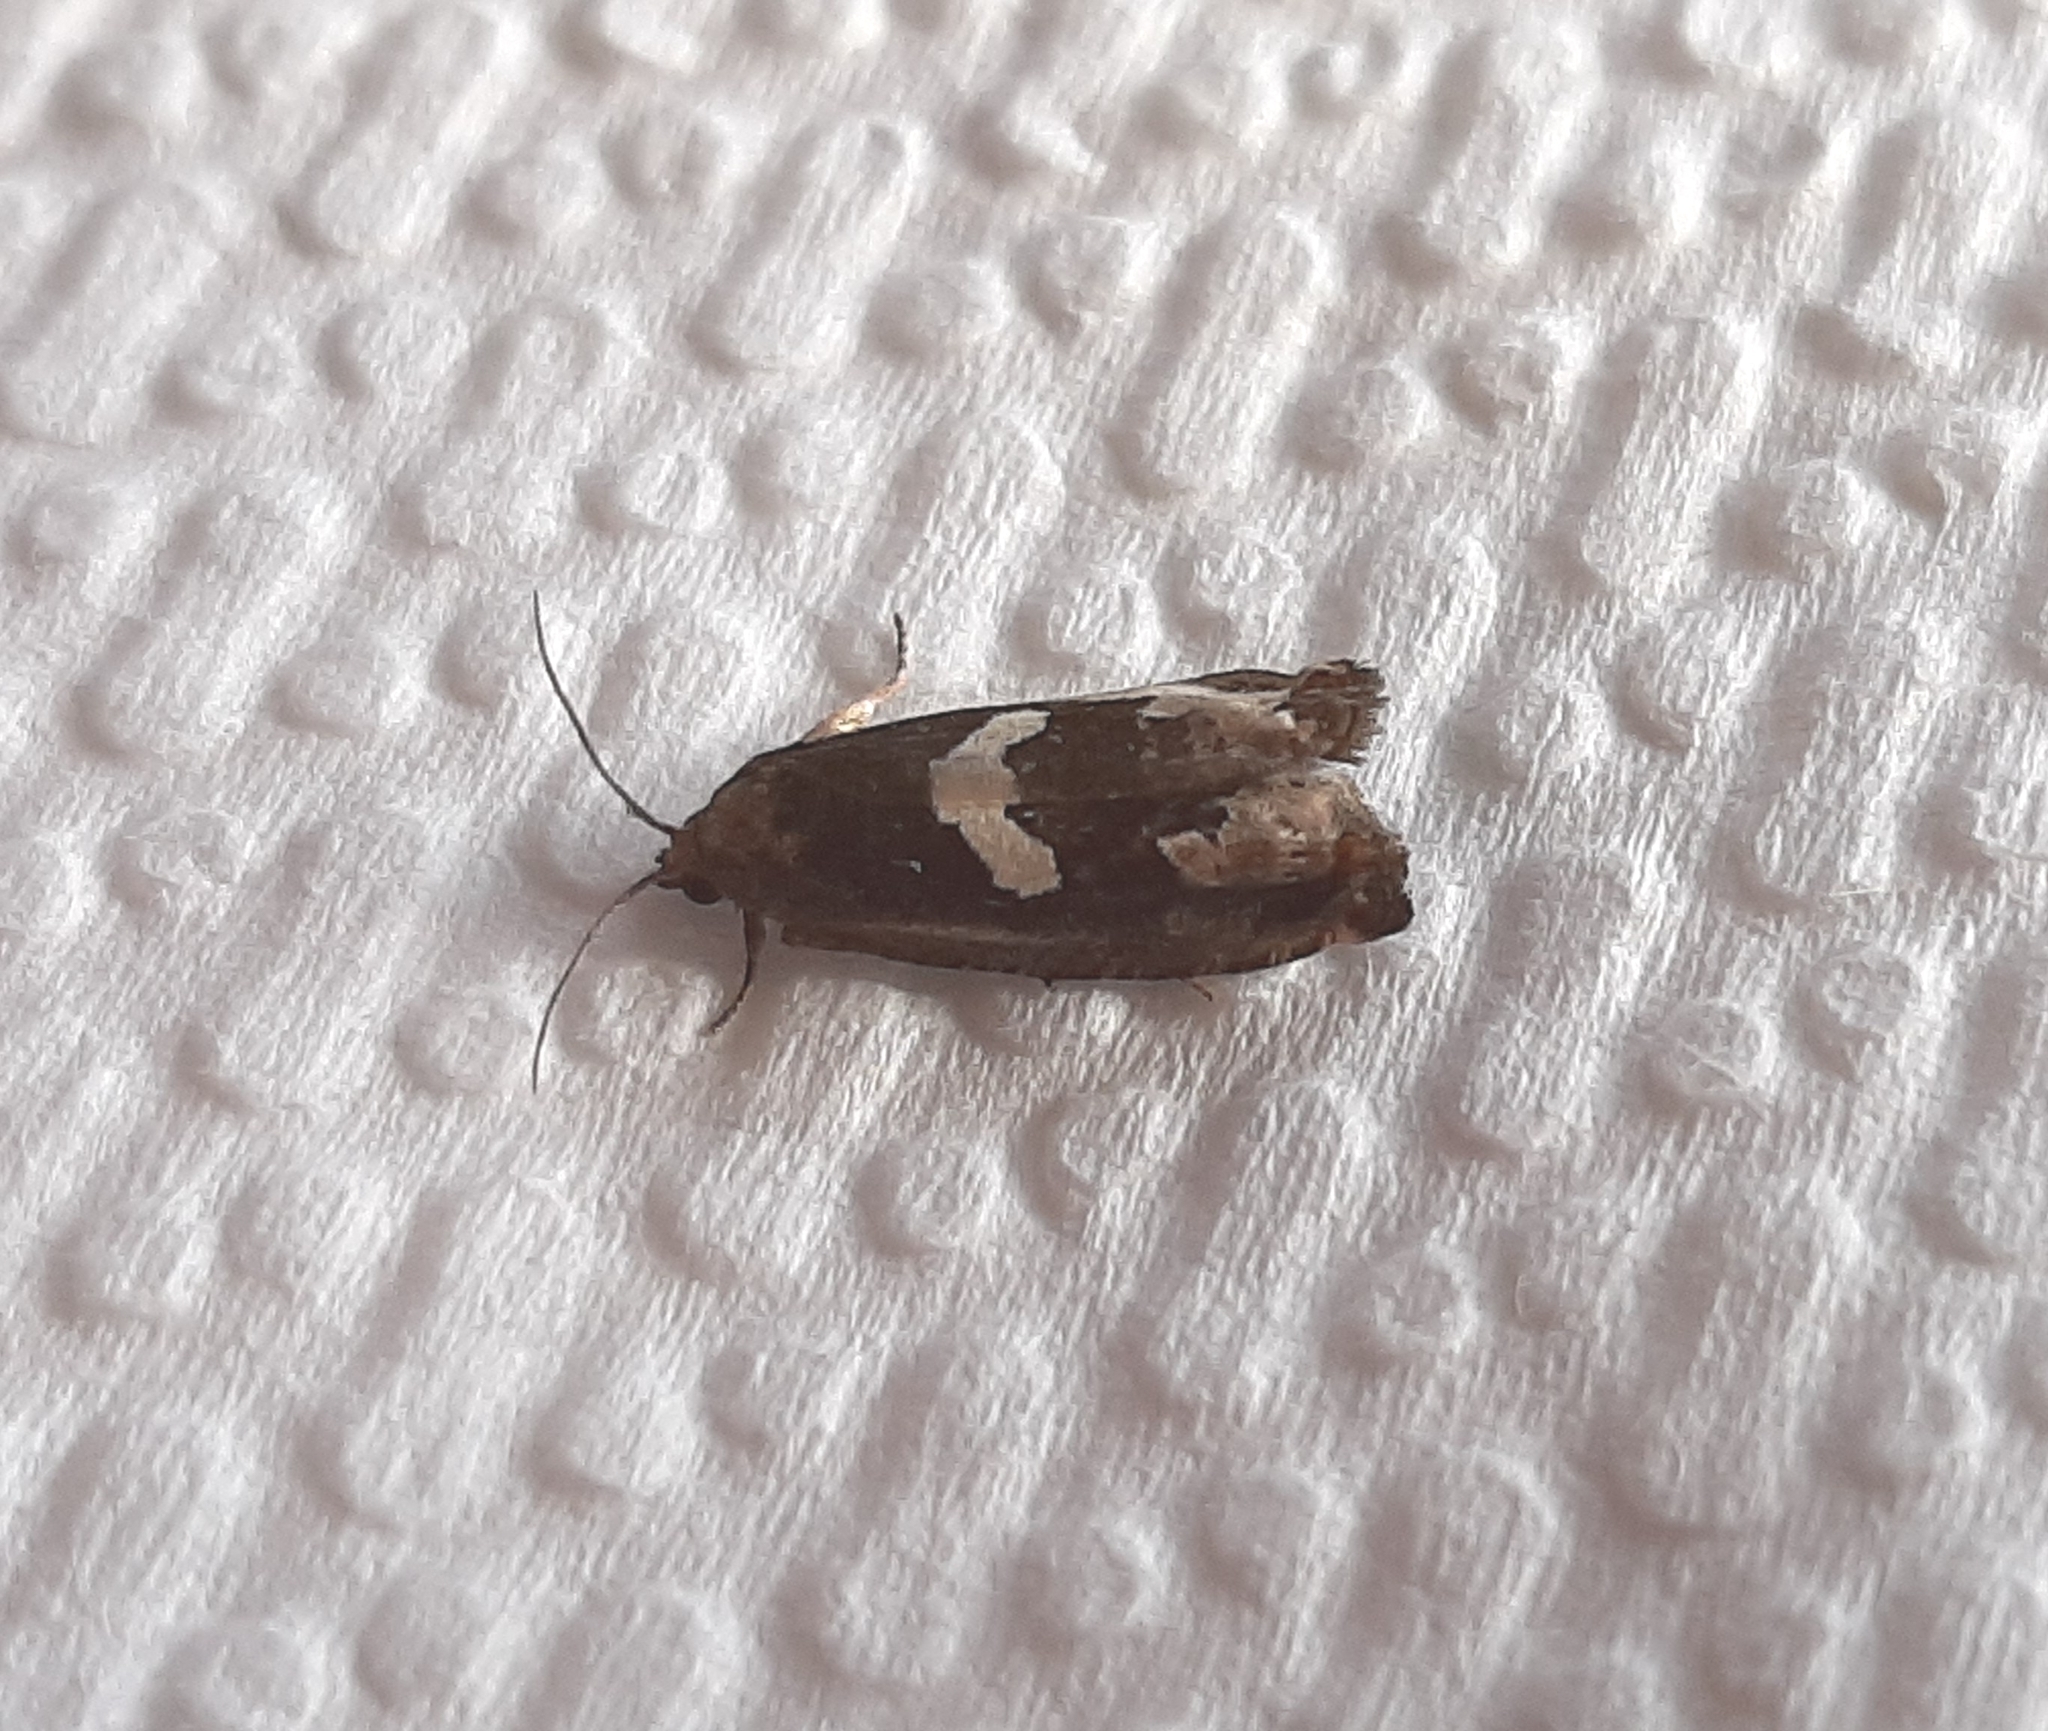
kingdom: Animalia
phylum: Arthropoda
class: Insecta
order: Lepidoptera
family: Tortricidae
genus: Epiblema
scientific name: Epiblema otiosana
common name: Bidens borer moth
